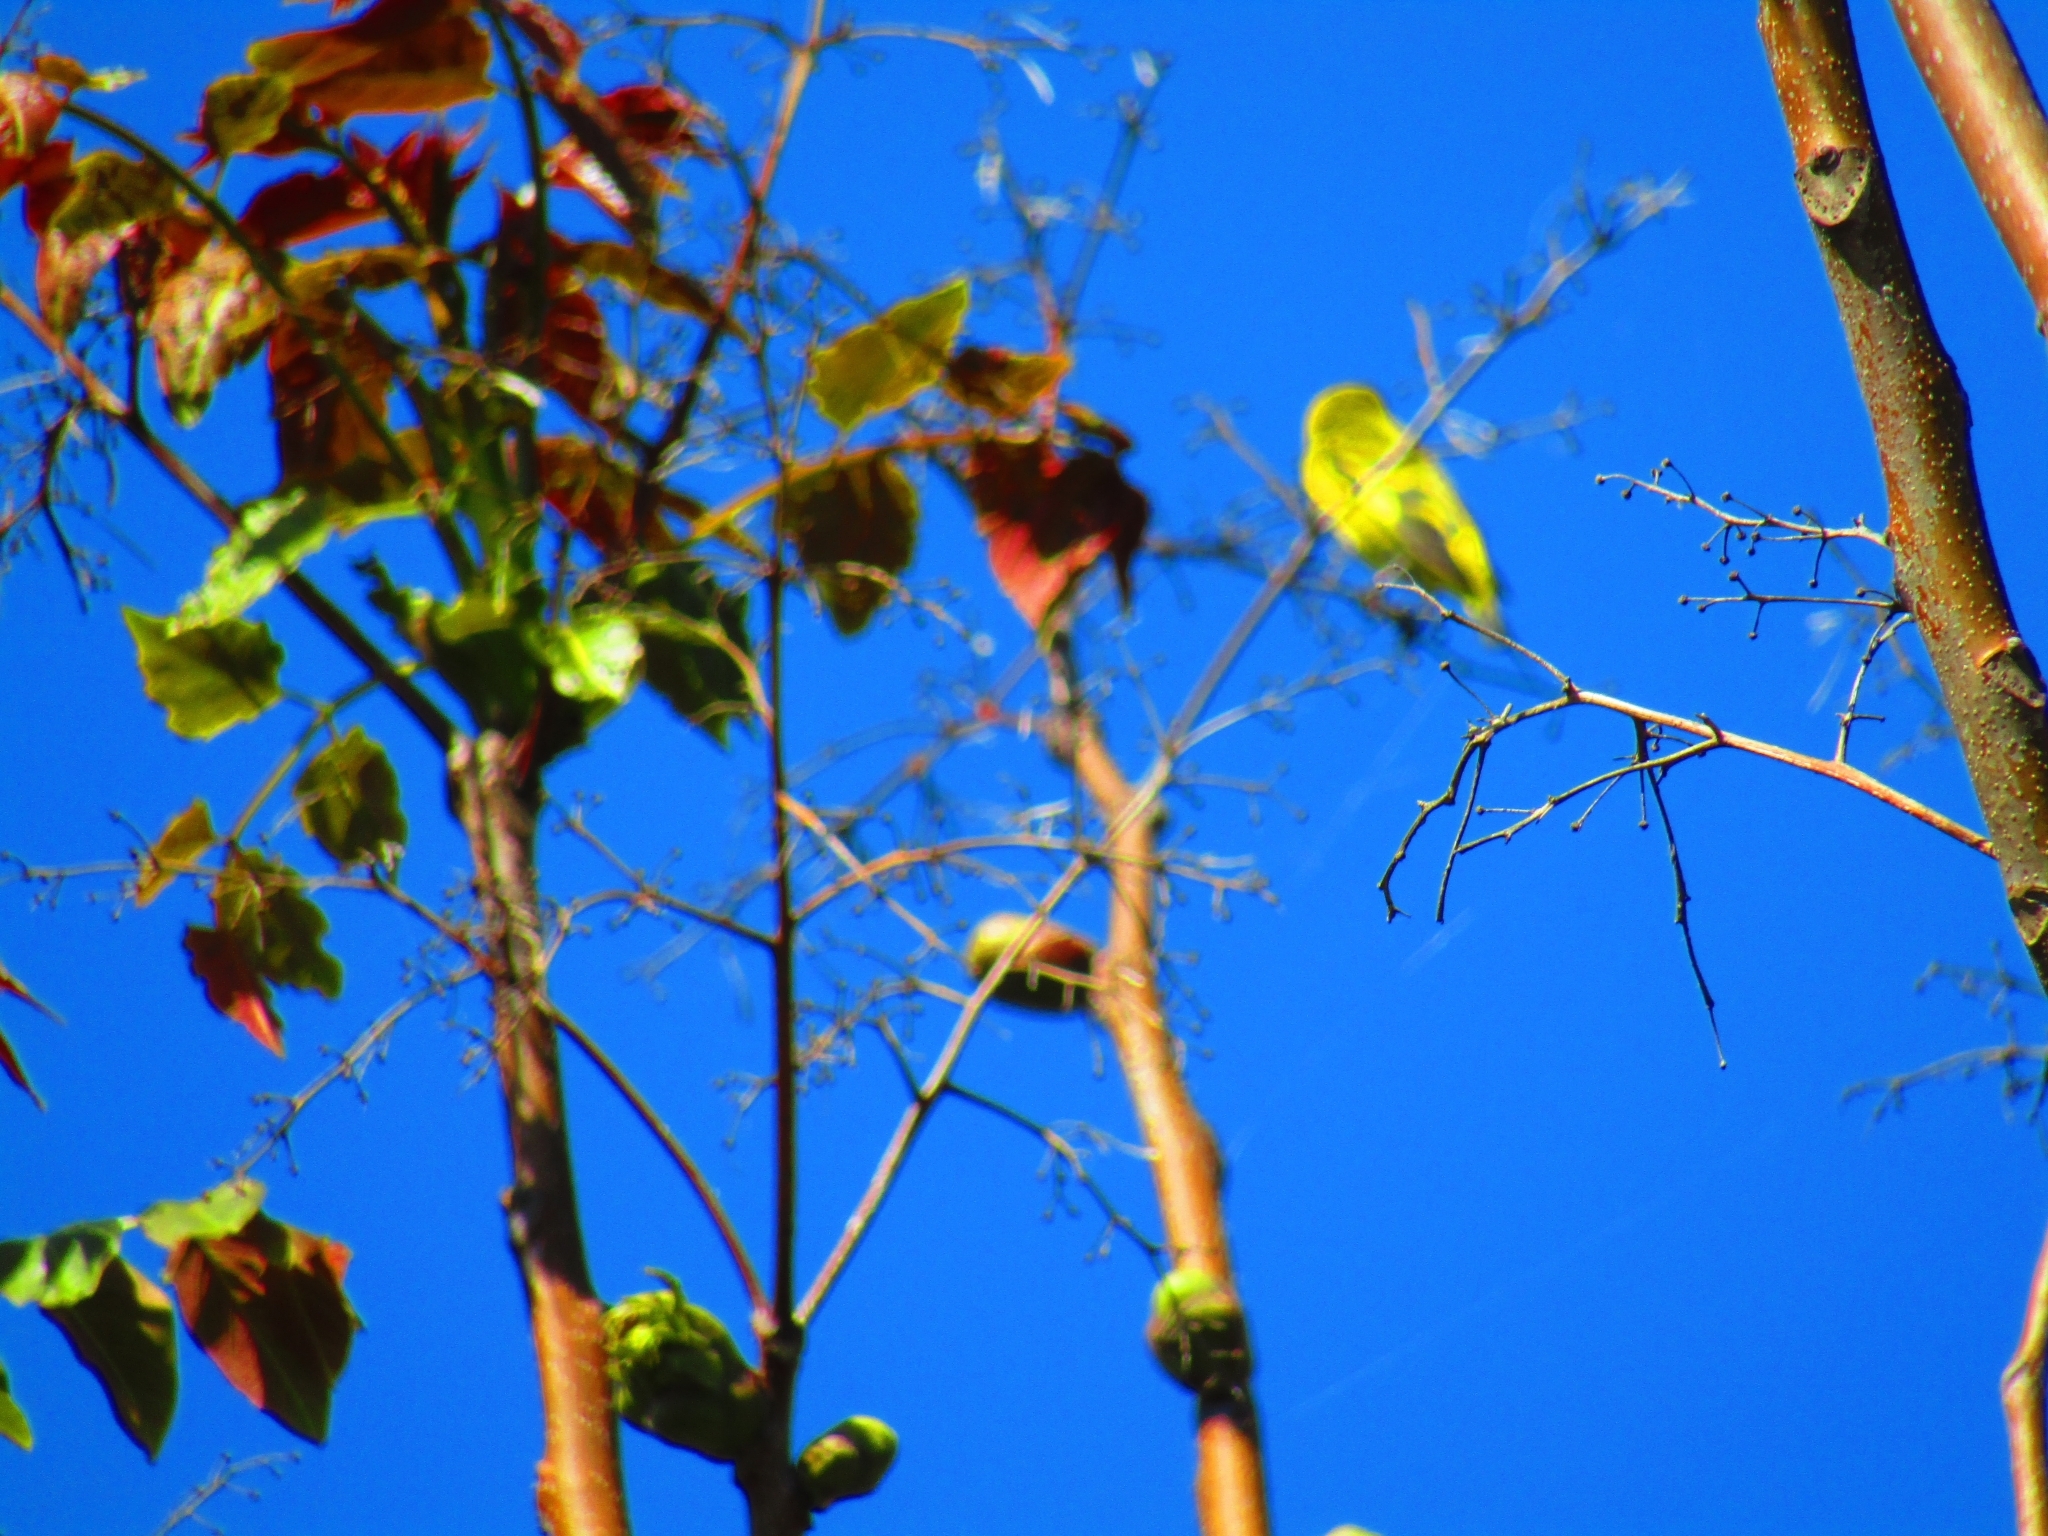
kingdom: Animalia
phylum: Chordata
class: Aves
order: Passeriformes
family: Fringillidae
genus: Spinus
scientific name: Spinus magellanicus
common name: Hooded siskin
